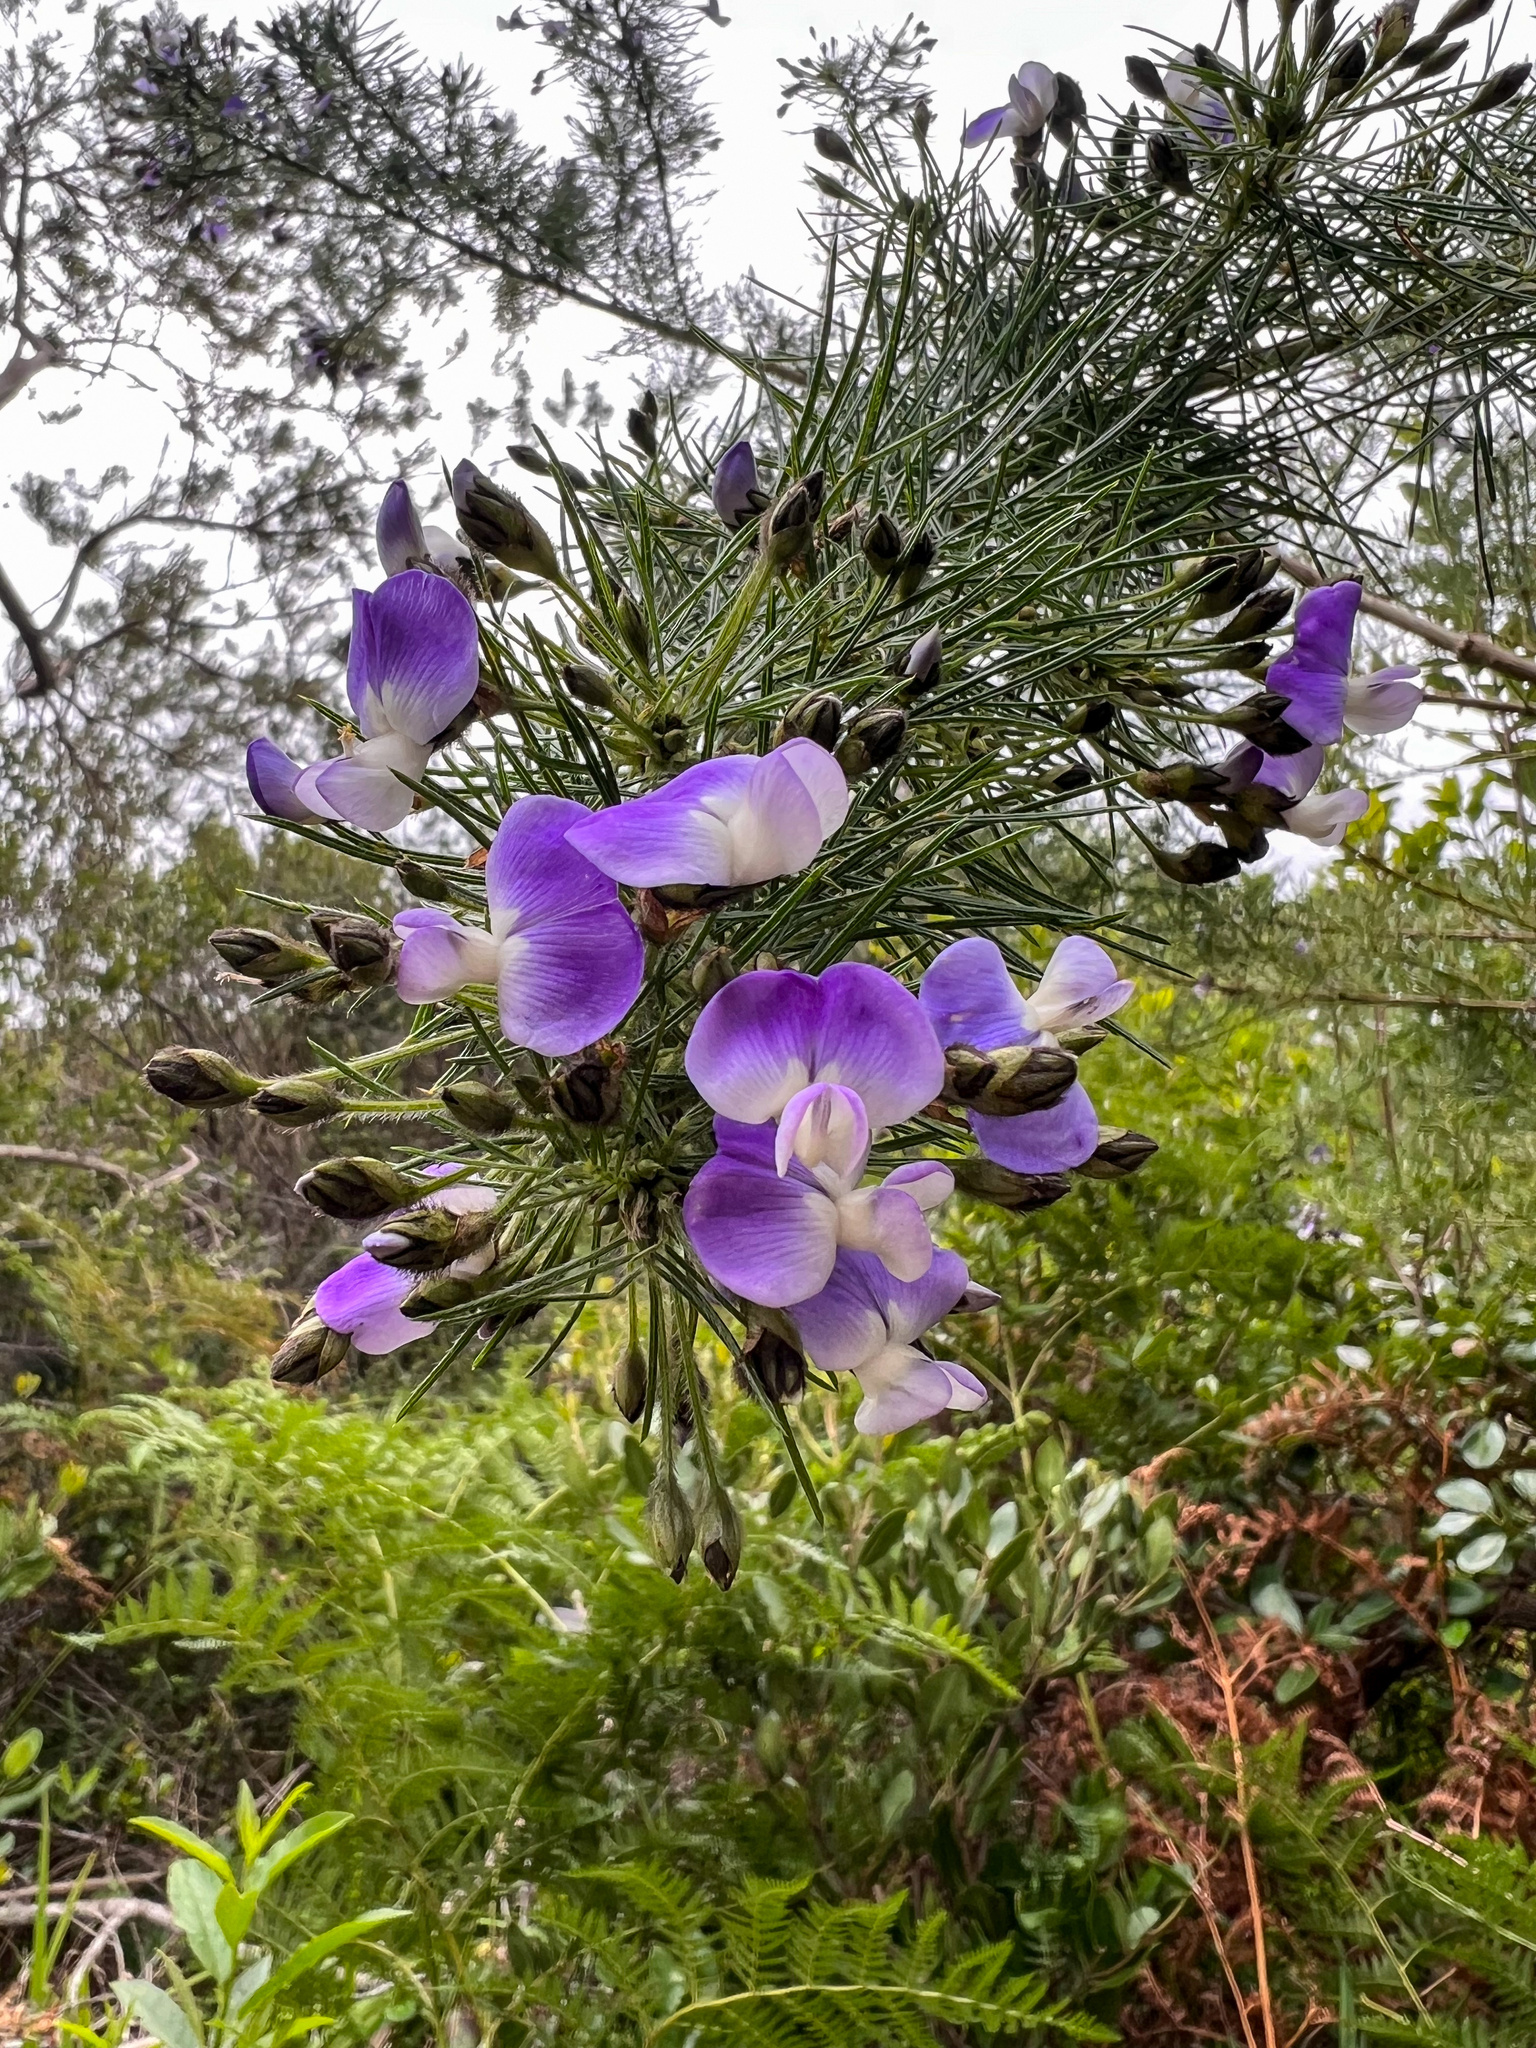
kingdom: Plantae
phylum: Tracheophyta
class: Magnoliopsida
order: Fabales
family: Fabaceae
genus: Psoralea
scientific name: Psoralea arborea
